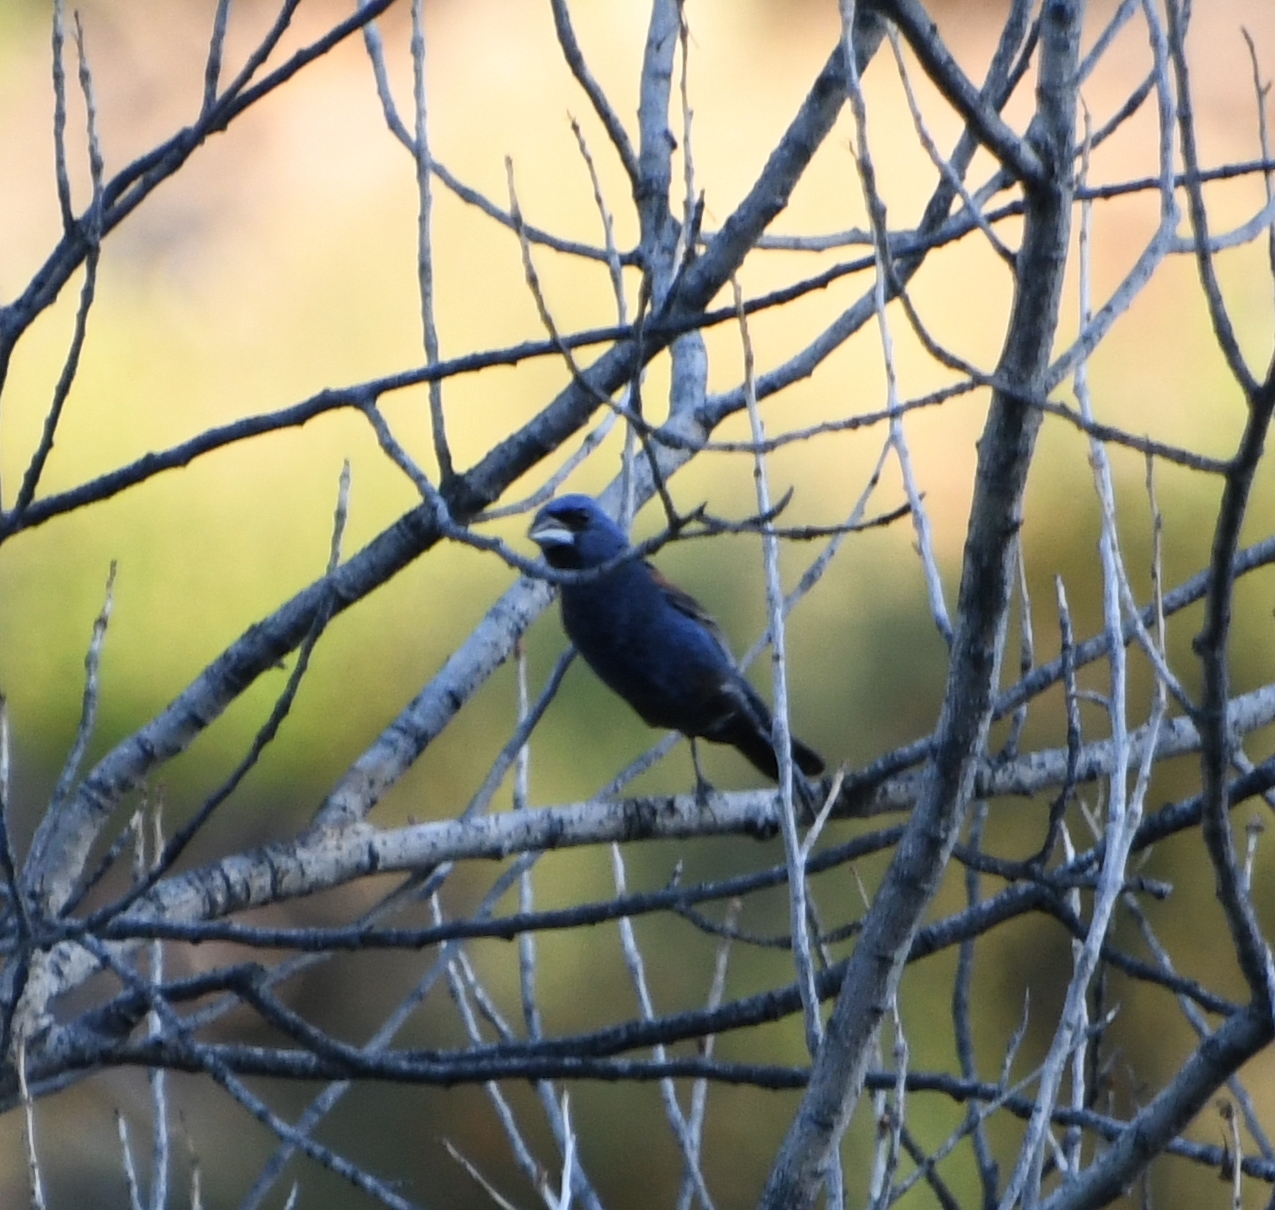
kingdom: Animalia
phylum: Chordata
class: Aves
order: Passeriformes
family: Cardinalidae
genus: Passerina
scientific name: Passerina caerulea
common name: Blue grosbeak
